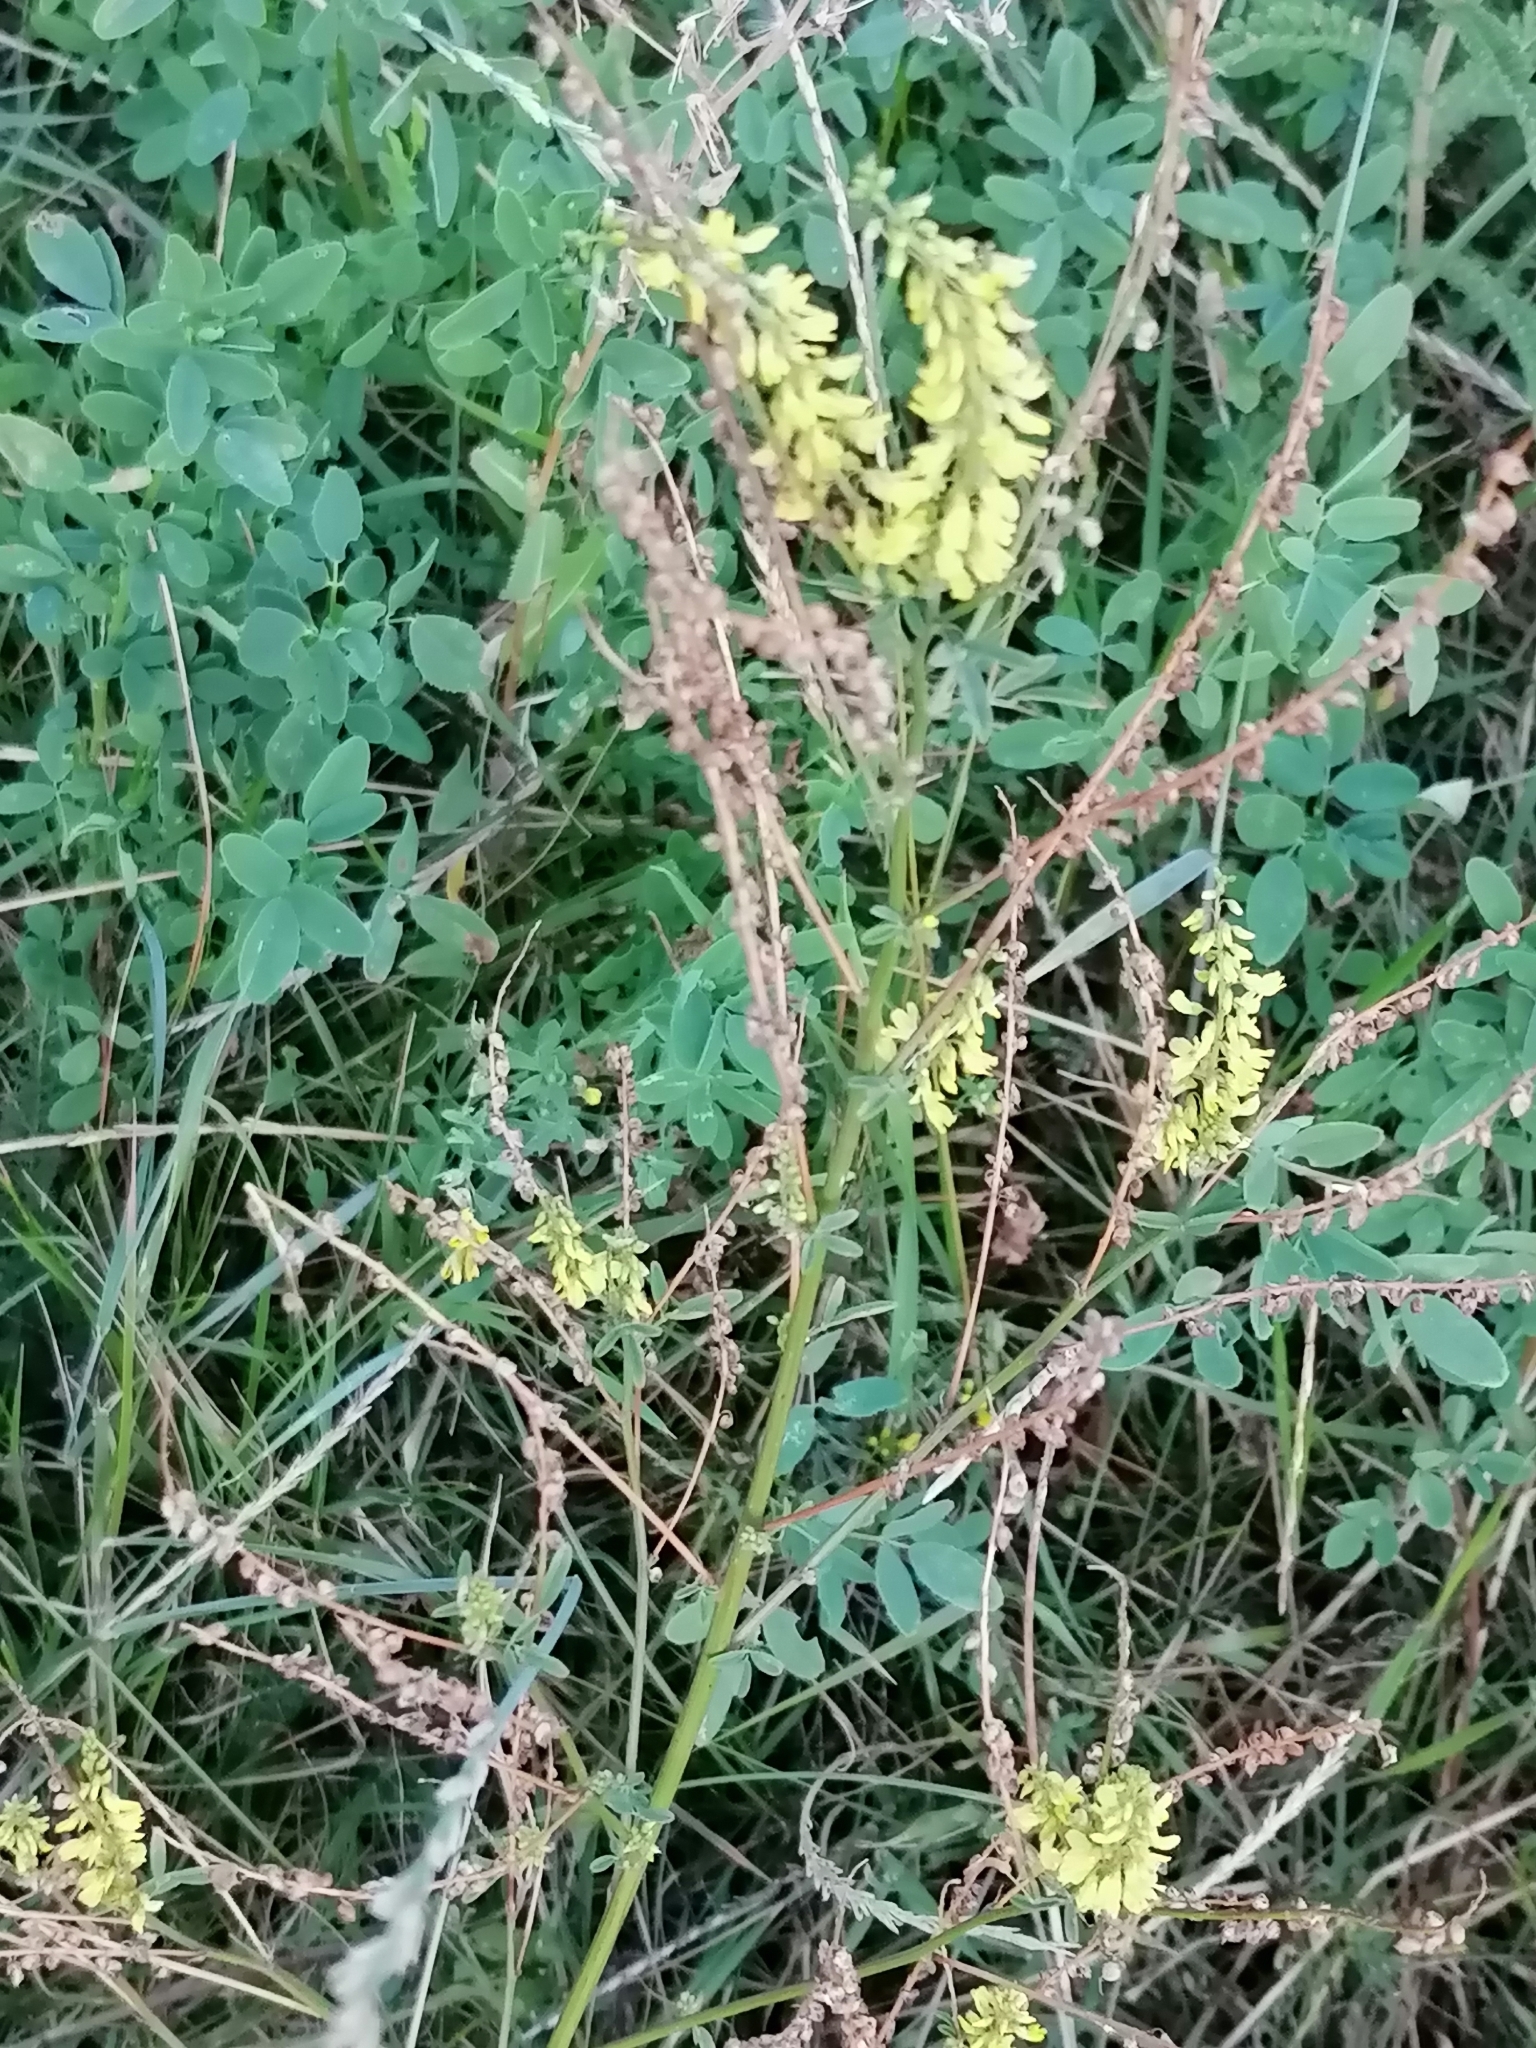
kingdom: Plantae
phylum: Tracheophyta
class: Magnoliopsida
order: Fabales
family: Fabaceae
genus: Melilotus
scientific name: Melilotus officinalis
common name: Sweetclover
